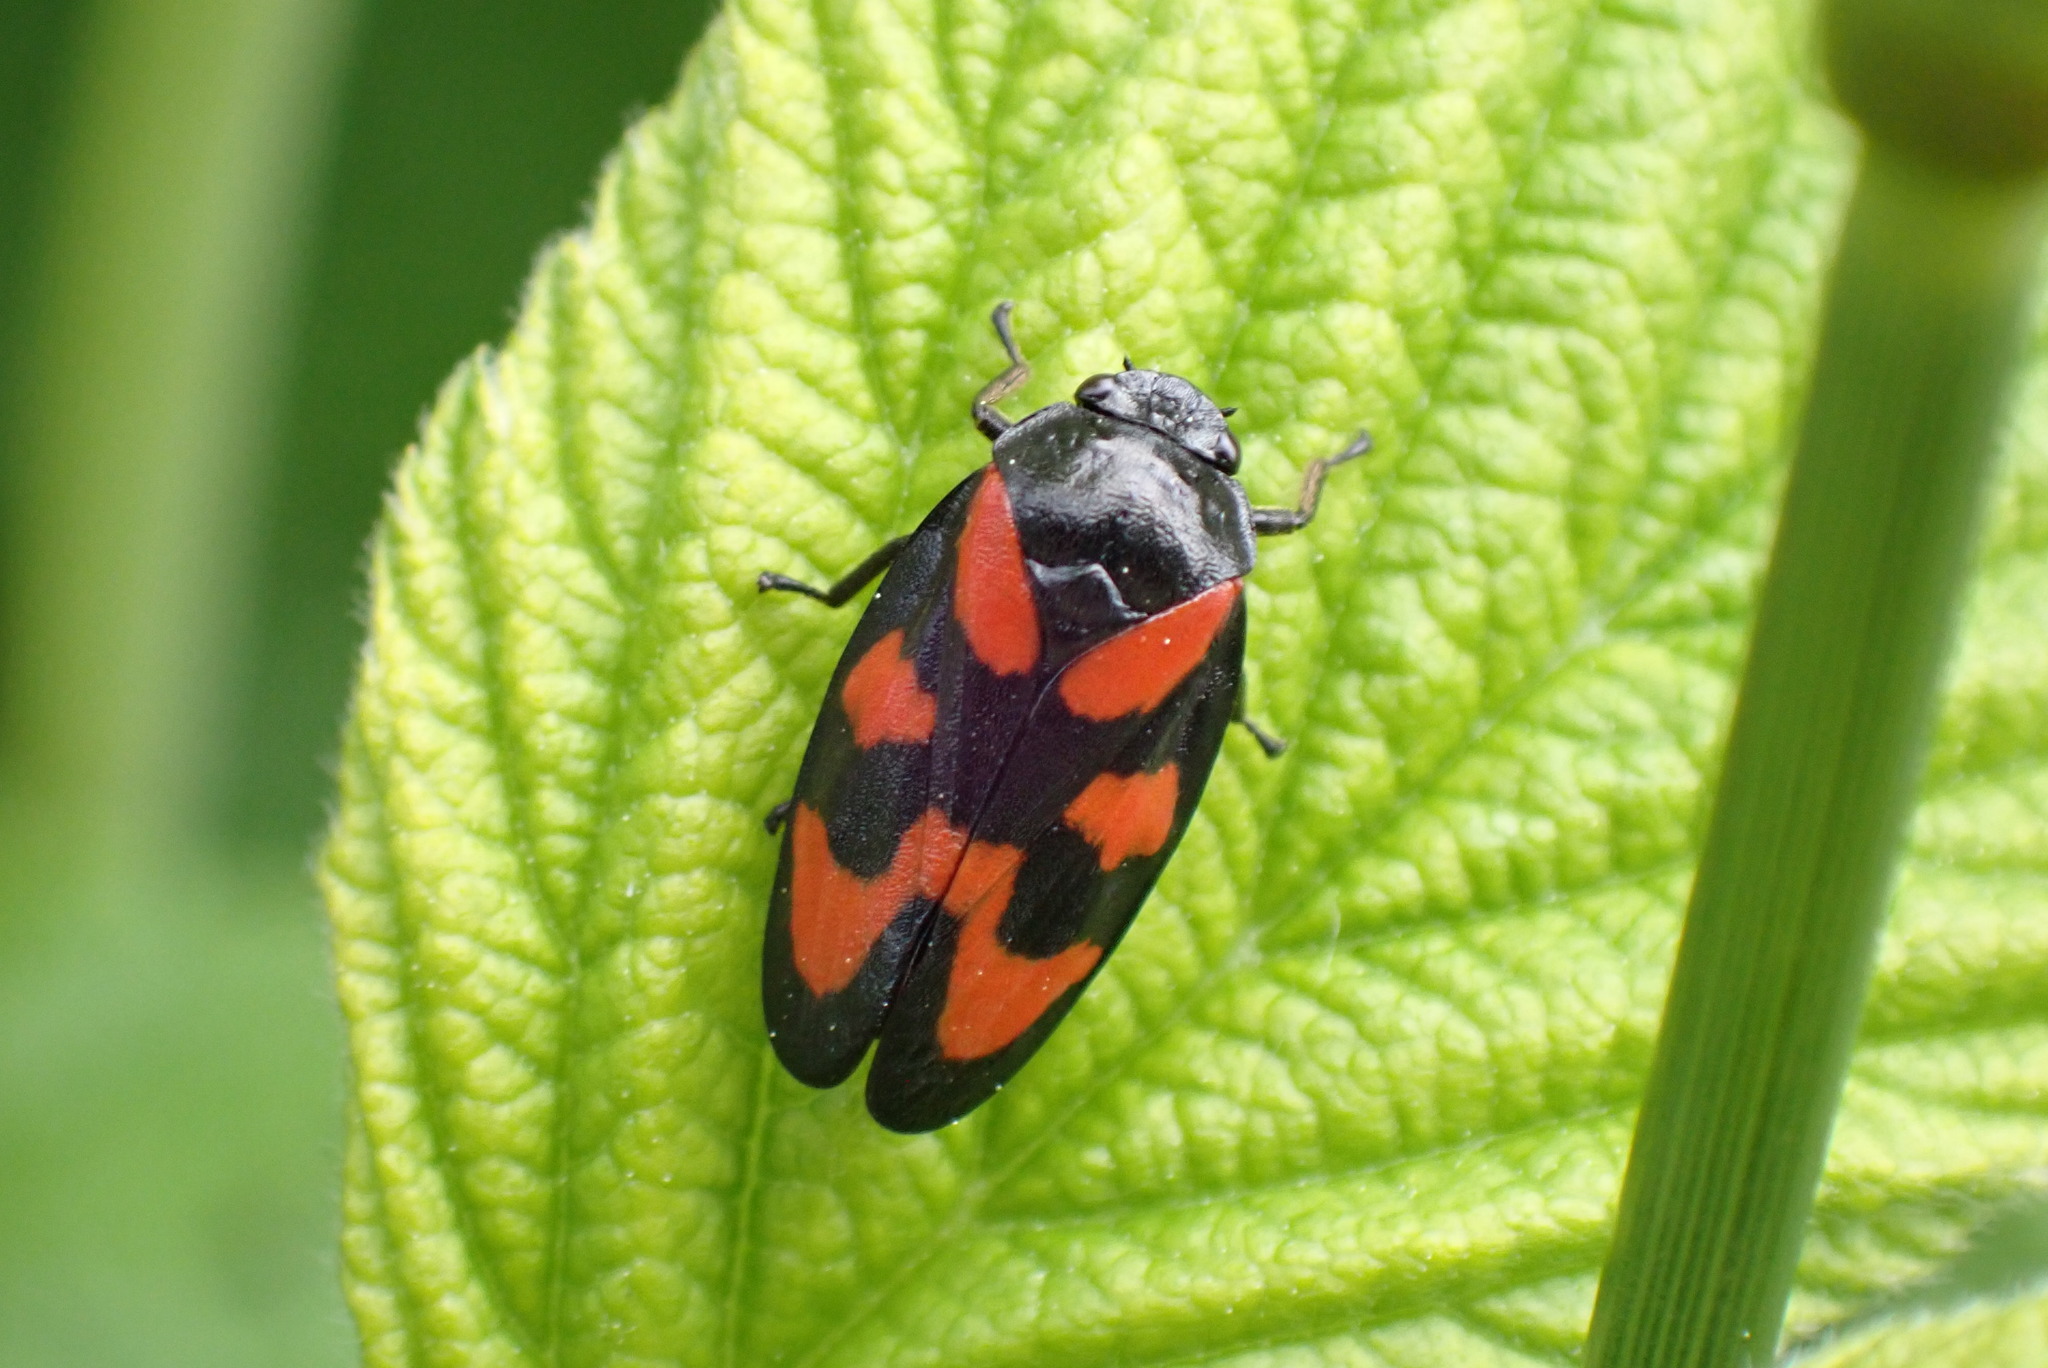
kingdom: Animalia
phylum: Arthropoda
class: Insecta
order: Hemiptera
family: Cercopidae
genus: Cercopis
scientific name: Cercopis vulnerata
